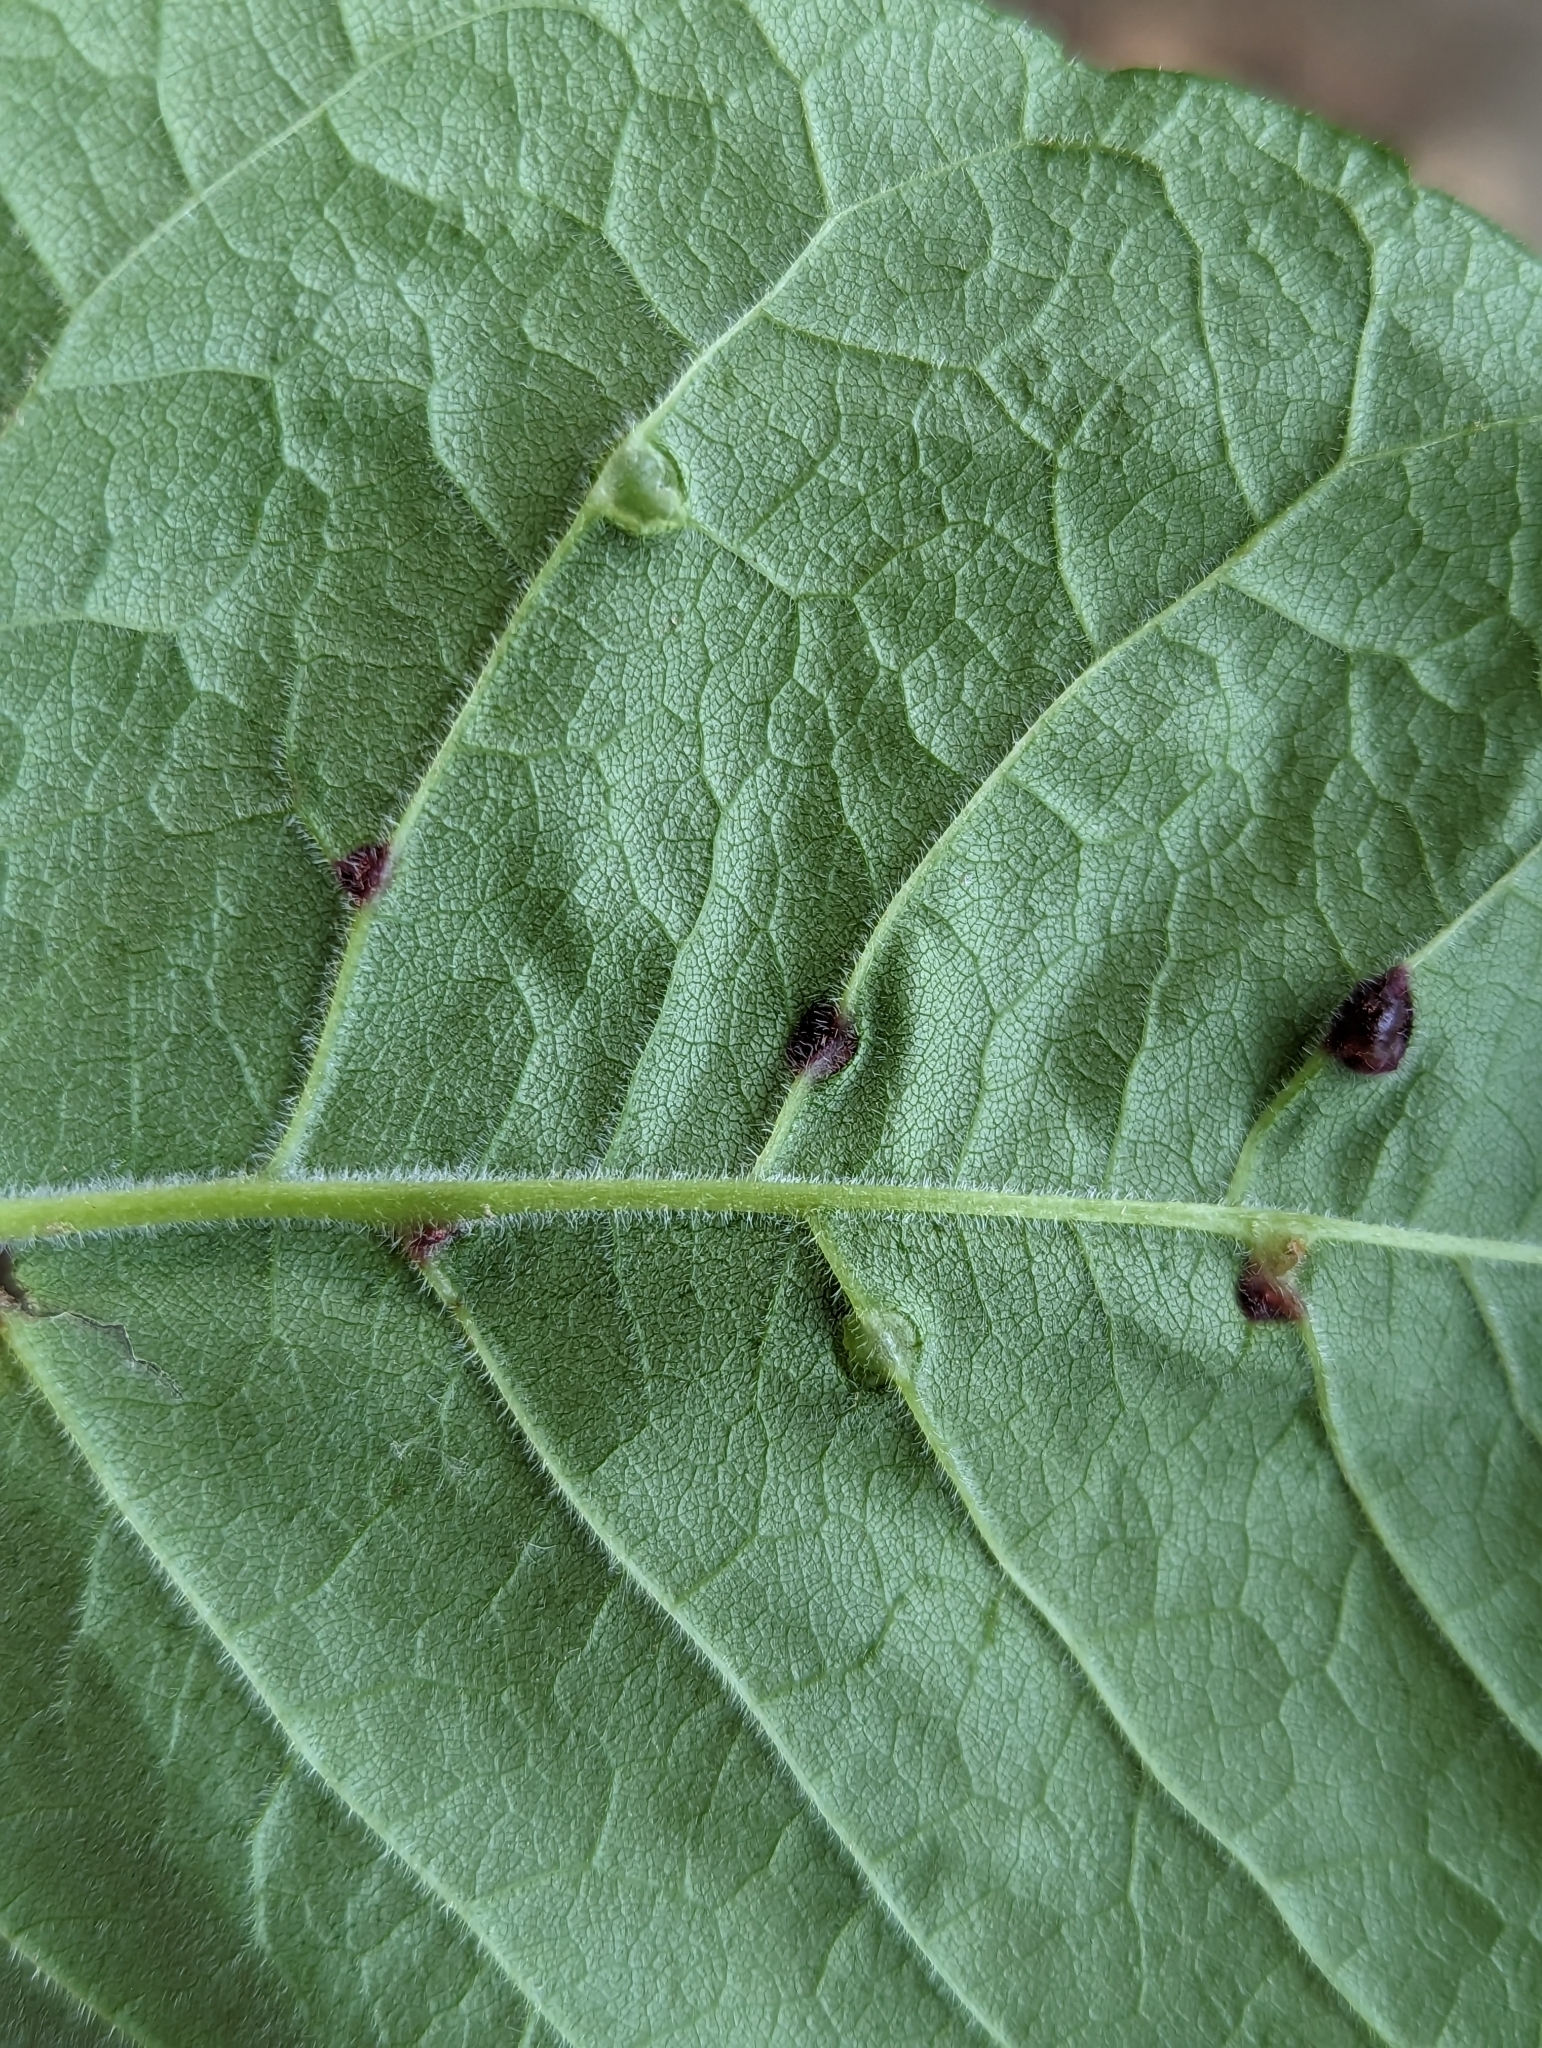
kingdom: Animalia
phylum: Arthropoda
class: Insecta
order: Diptera
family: Cecidomyiidae
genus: Dasineura
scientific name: Dasineura pellex
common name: Ash bullet gall midge
